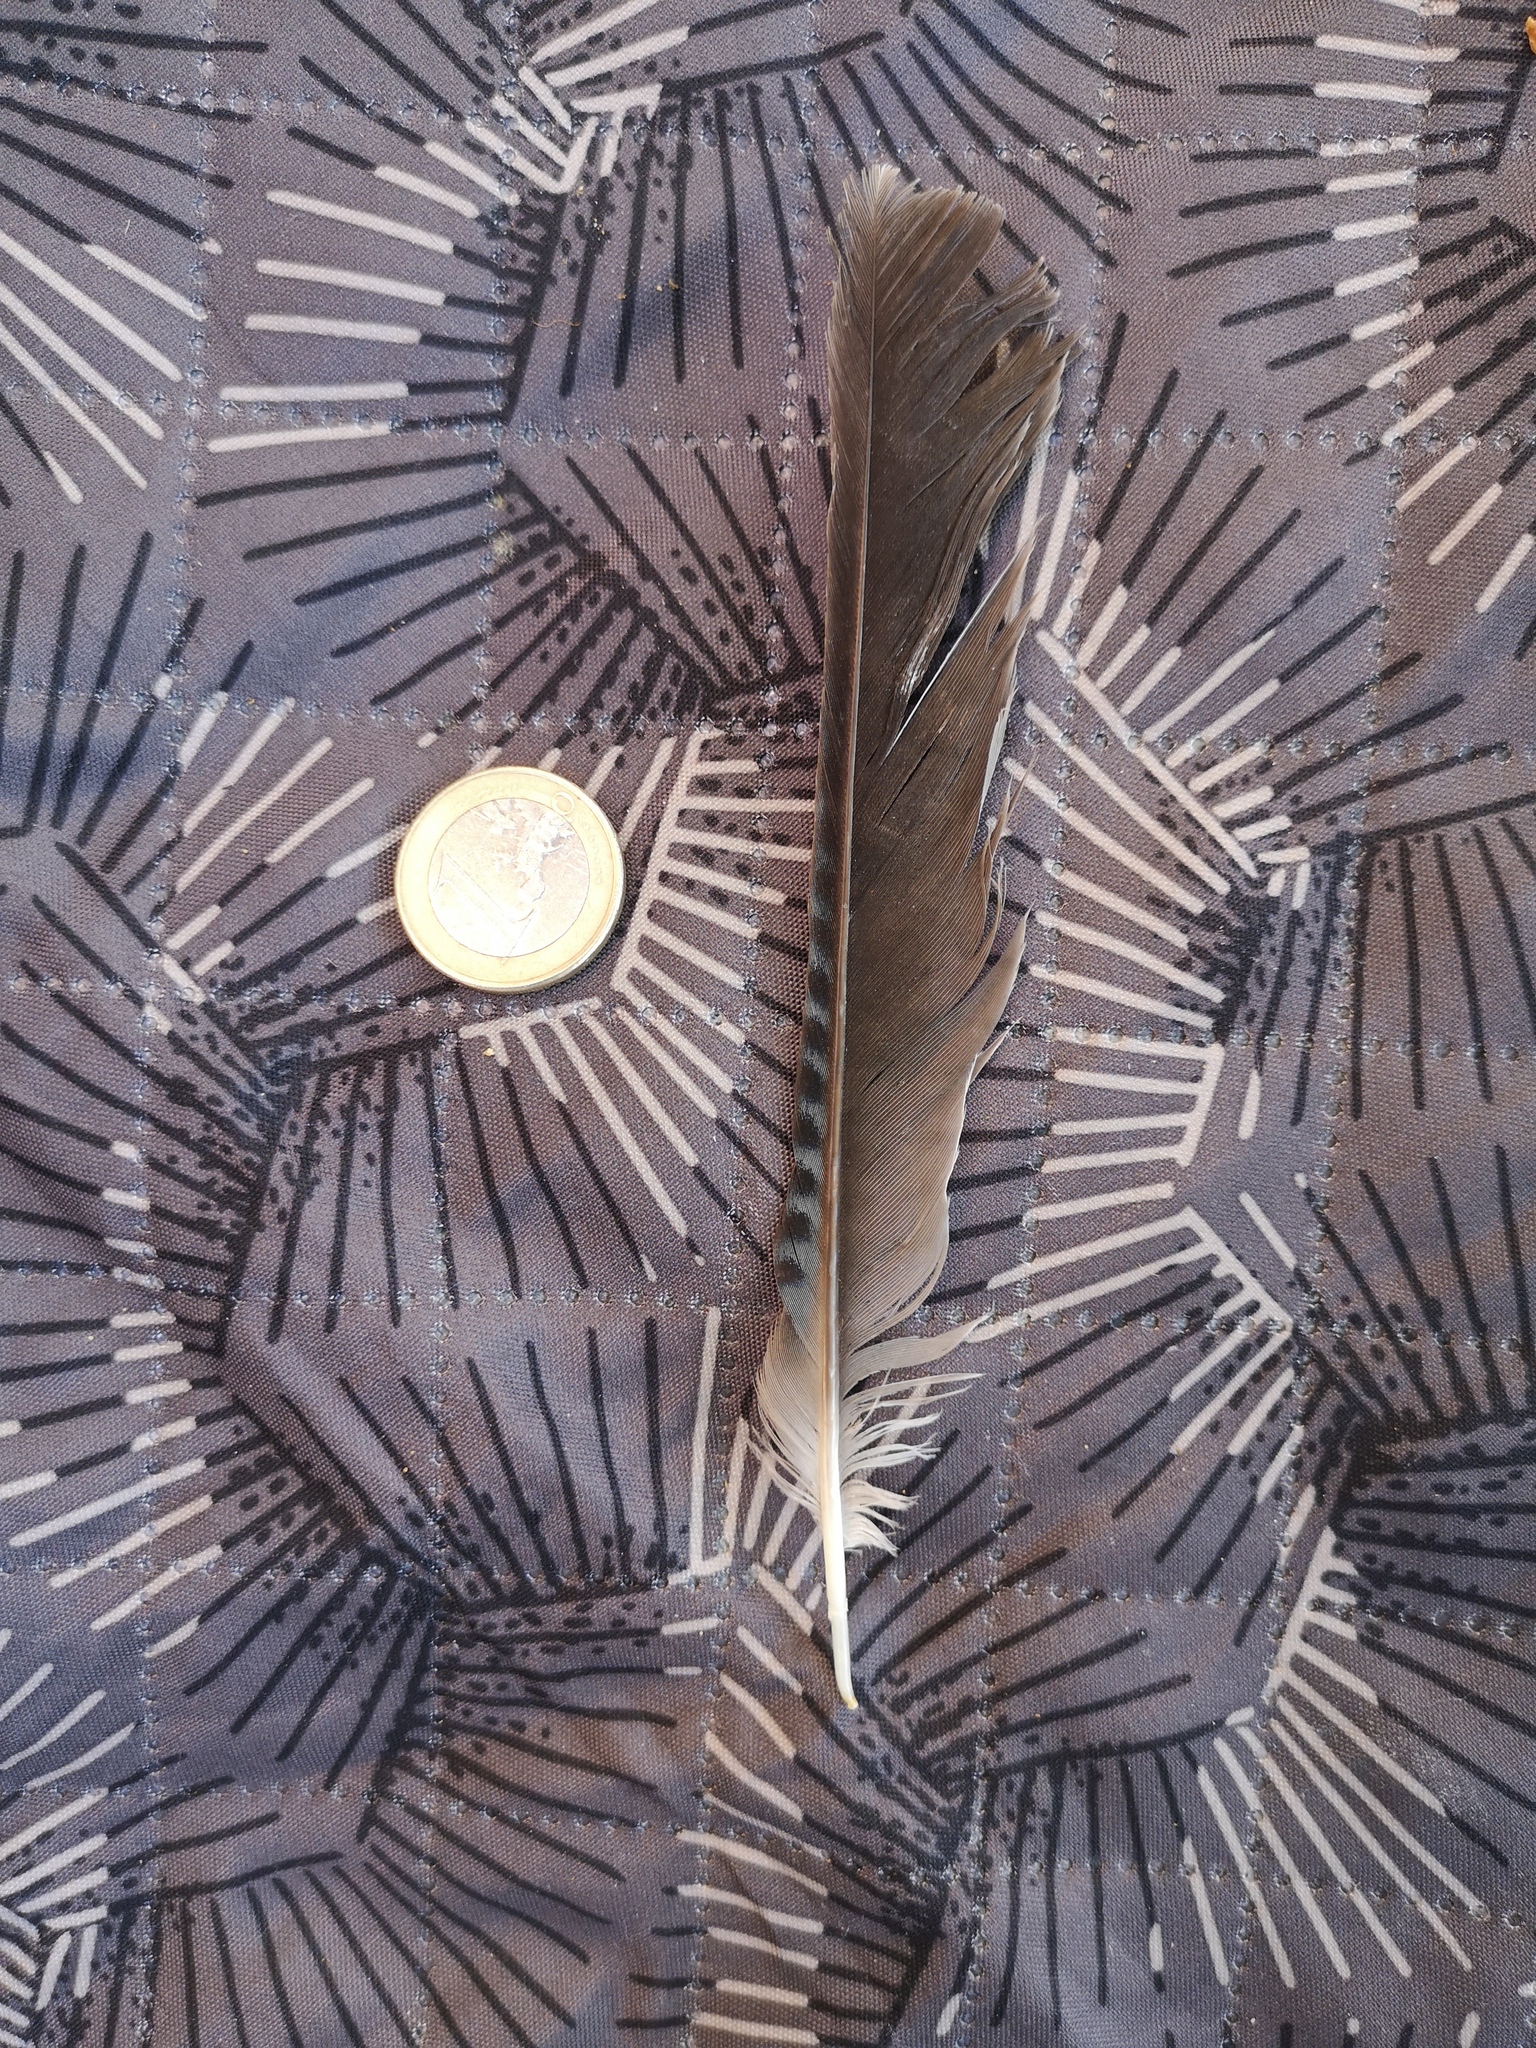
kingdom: Animalia
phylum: Chordata
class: Aves
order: Passeriformes
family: Corvidae
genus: Garrulus
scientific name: Garrulus glandarius
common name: Eurasian jay
